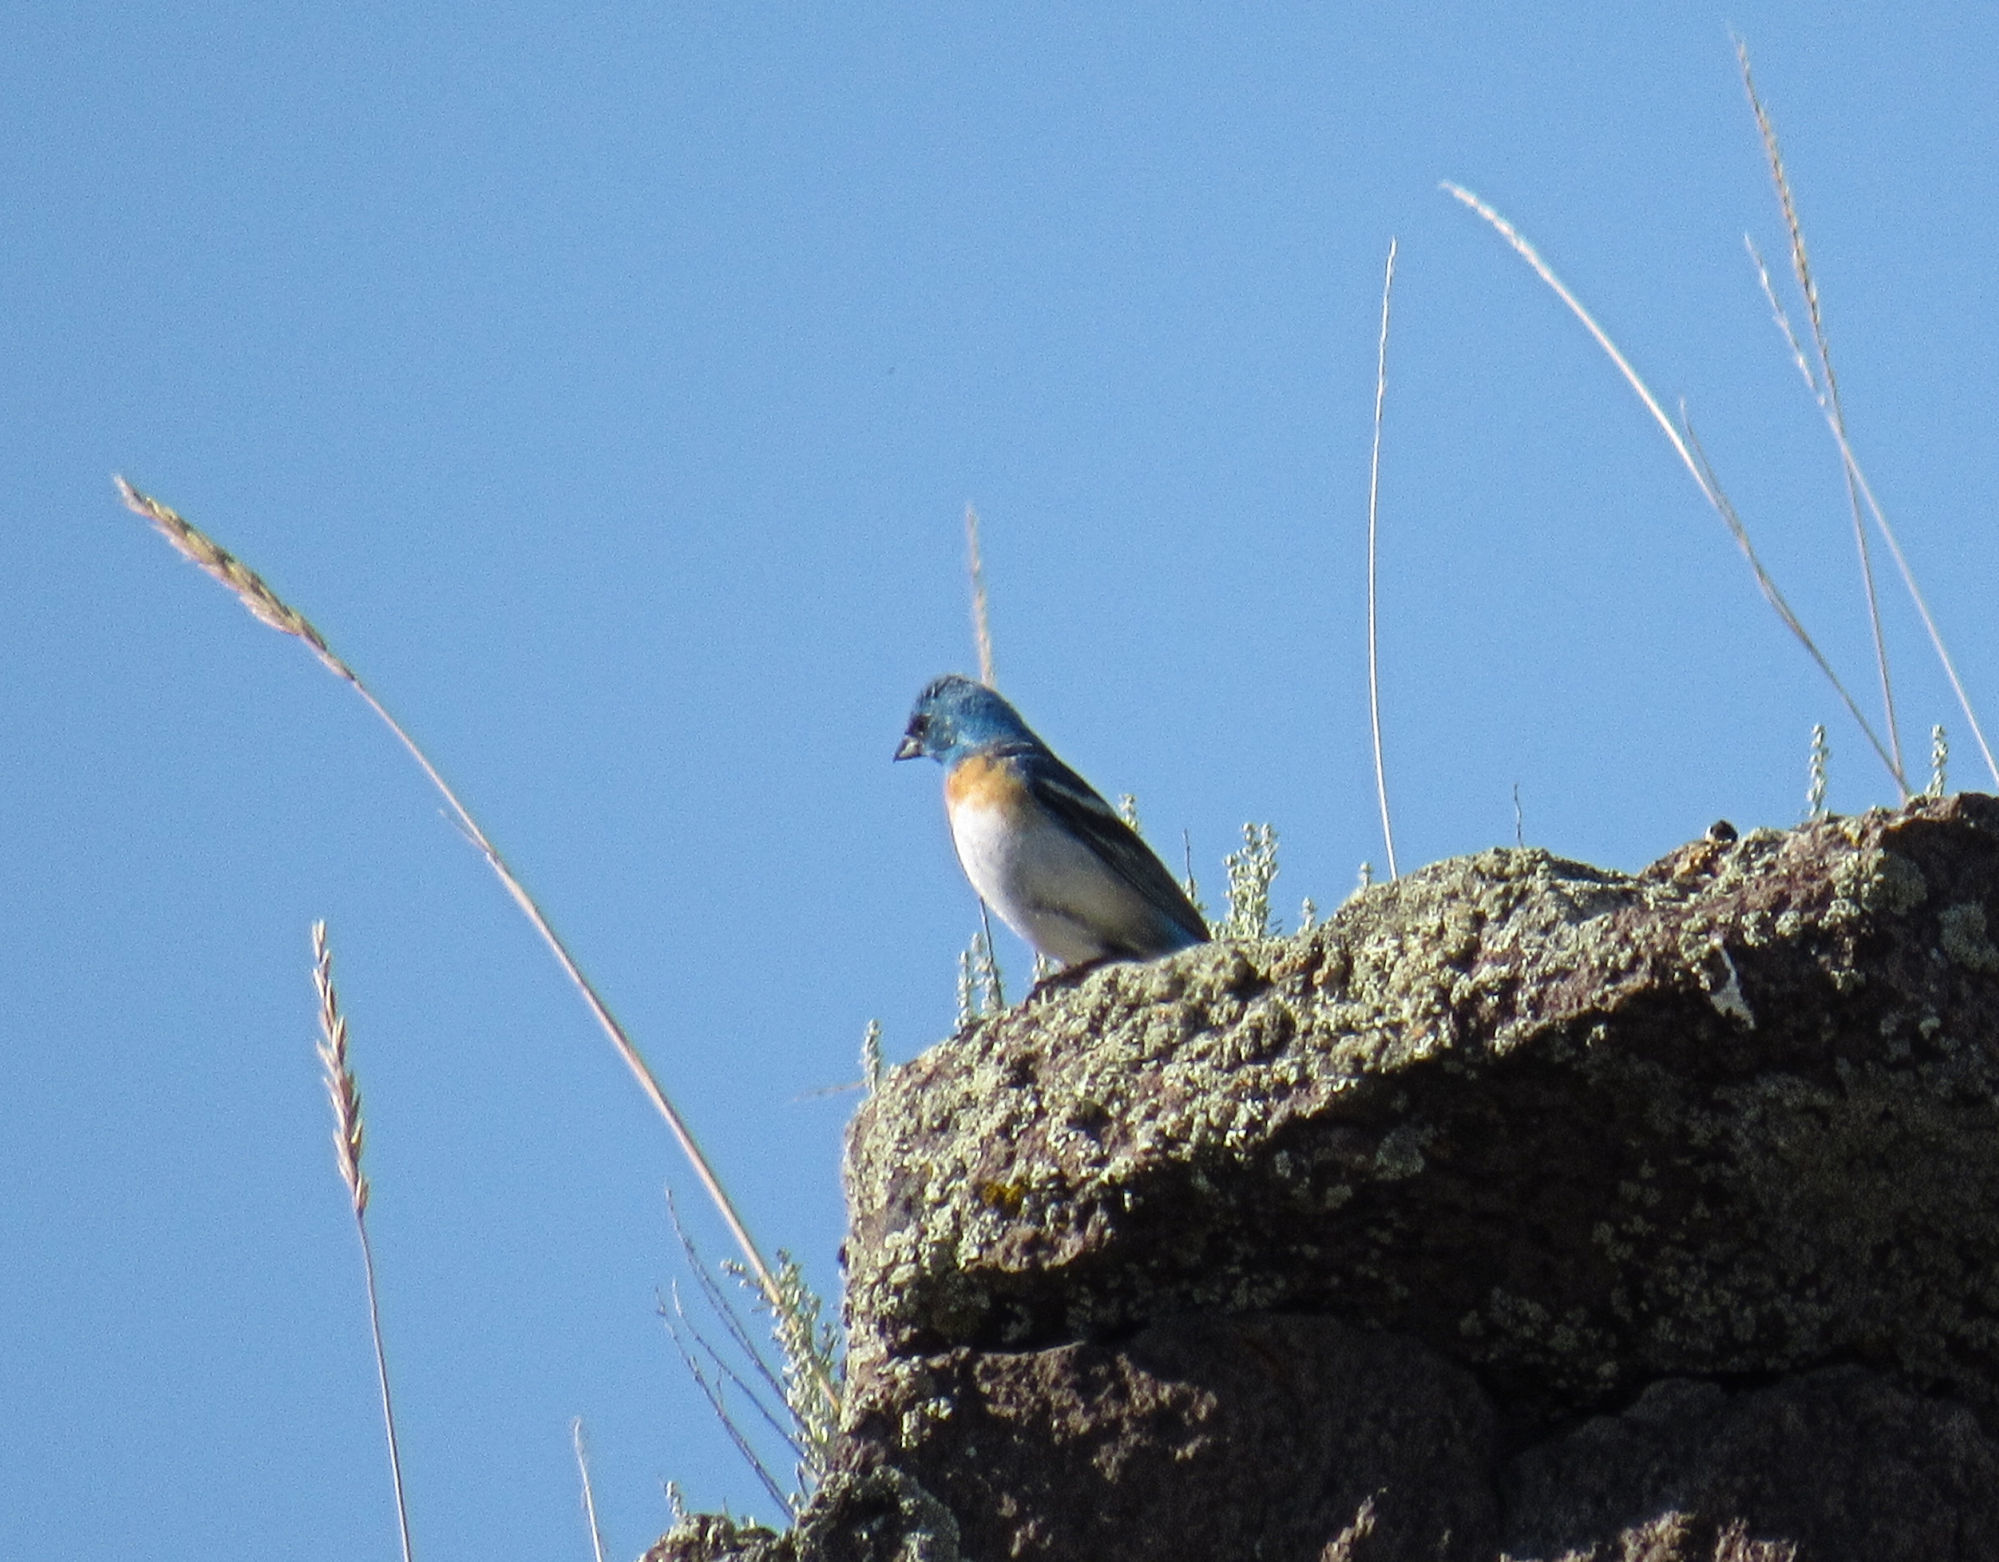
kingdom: Animalia
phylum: Chordata
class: Aves
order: Passeriformes
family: Cardinalidae
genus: Passerina
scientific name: Passerina amoena
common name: Lazuli bunting
